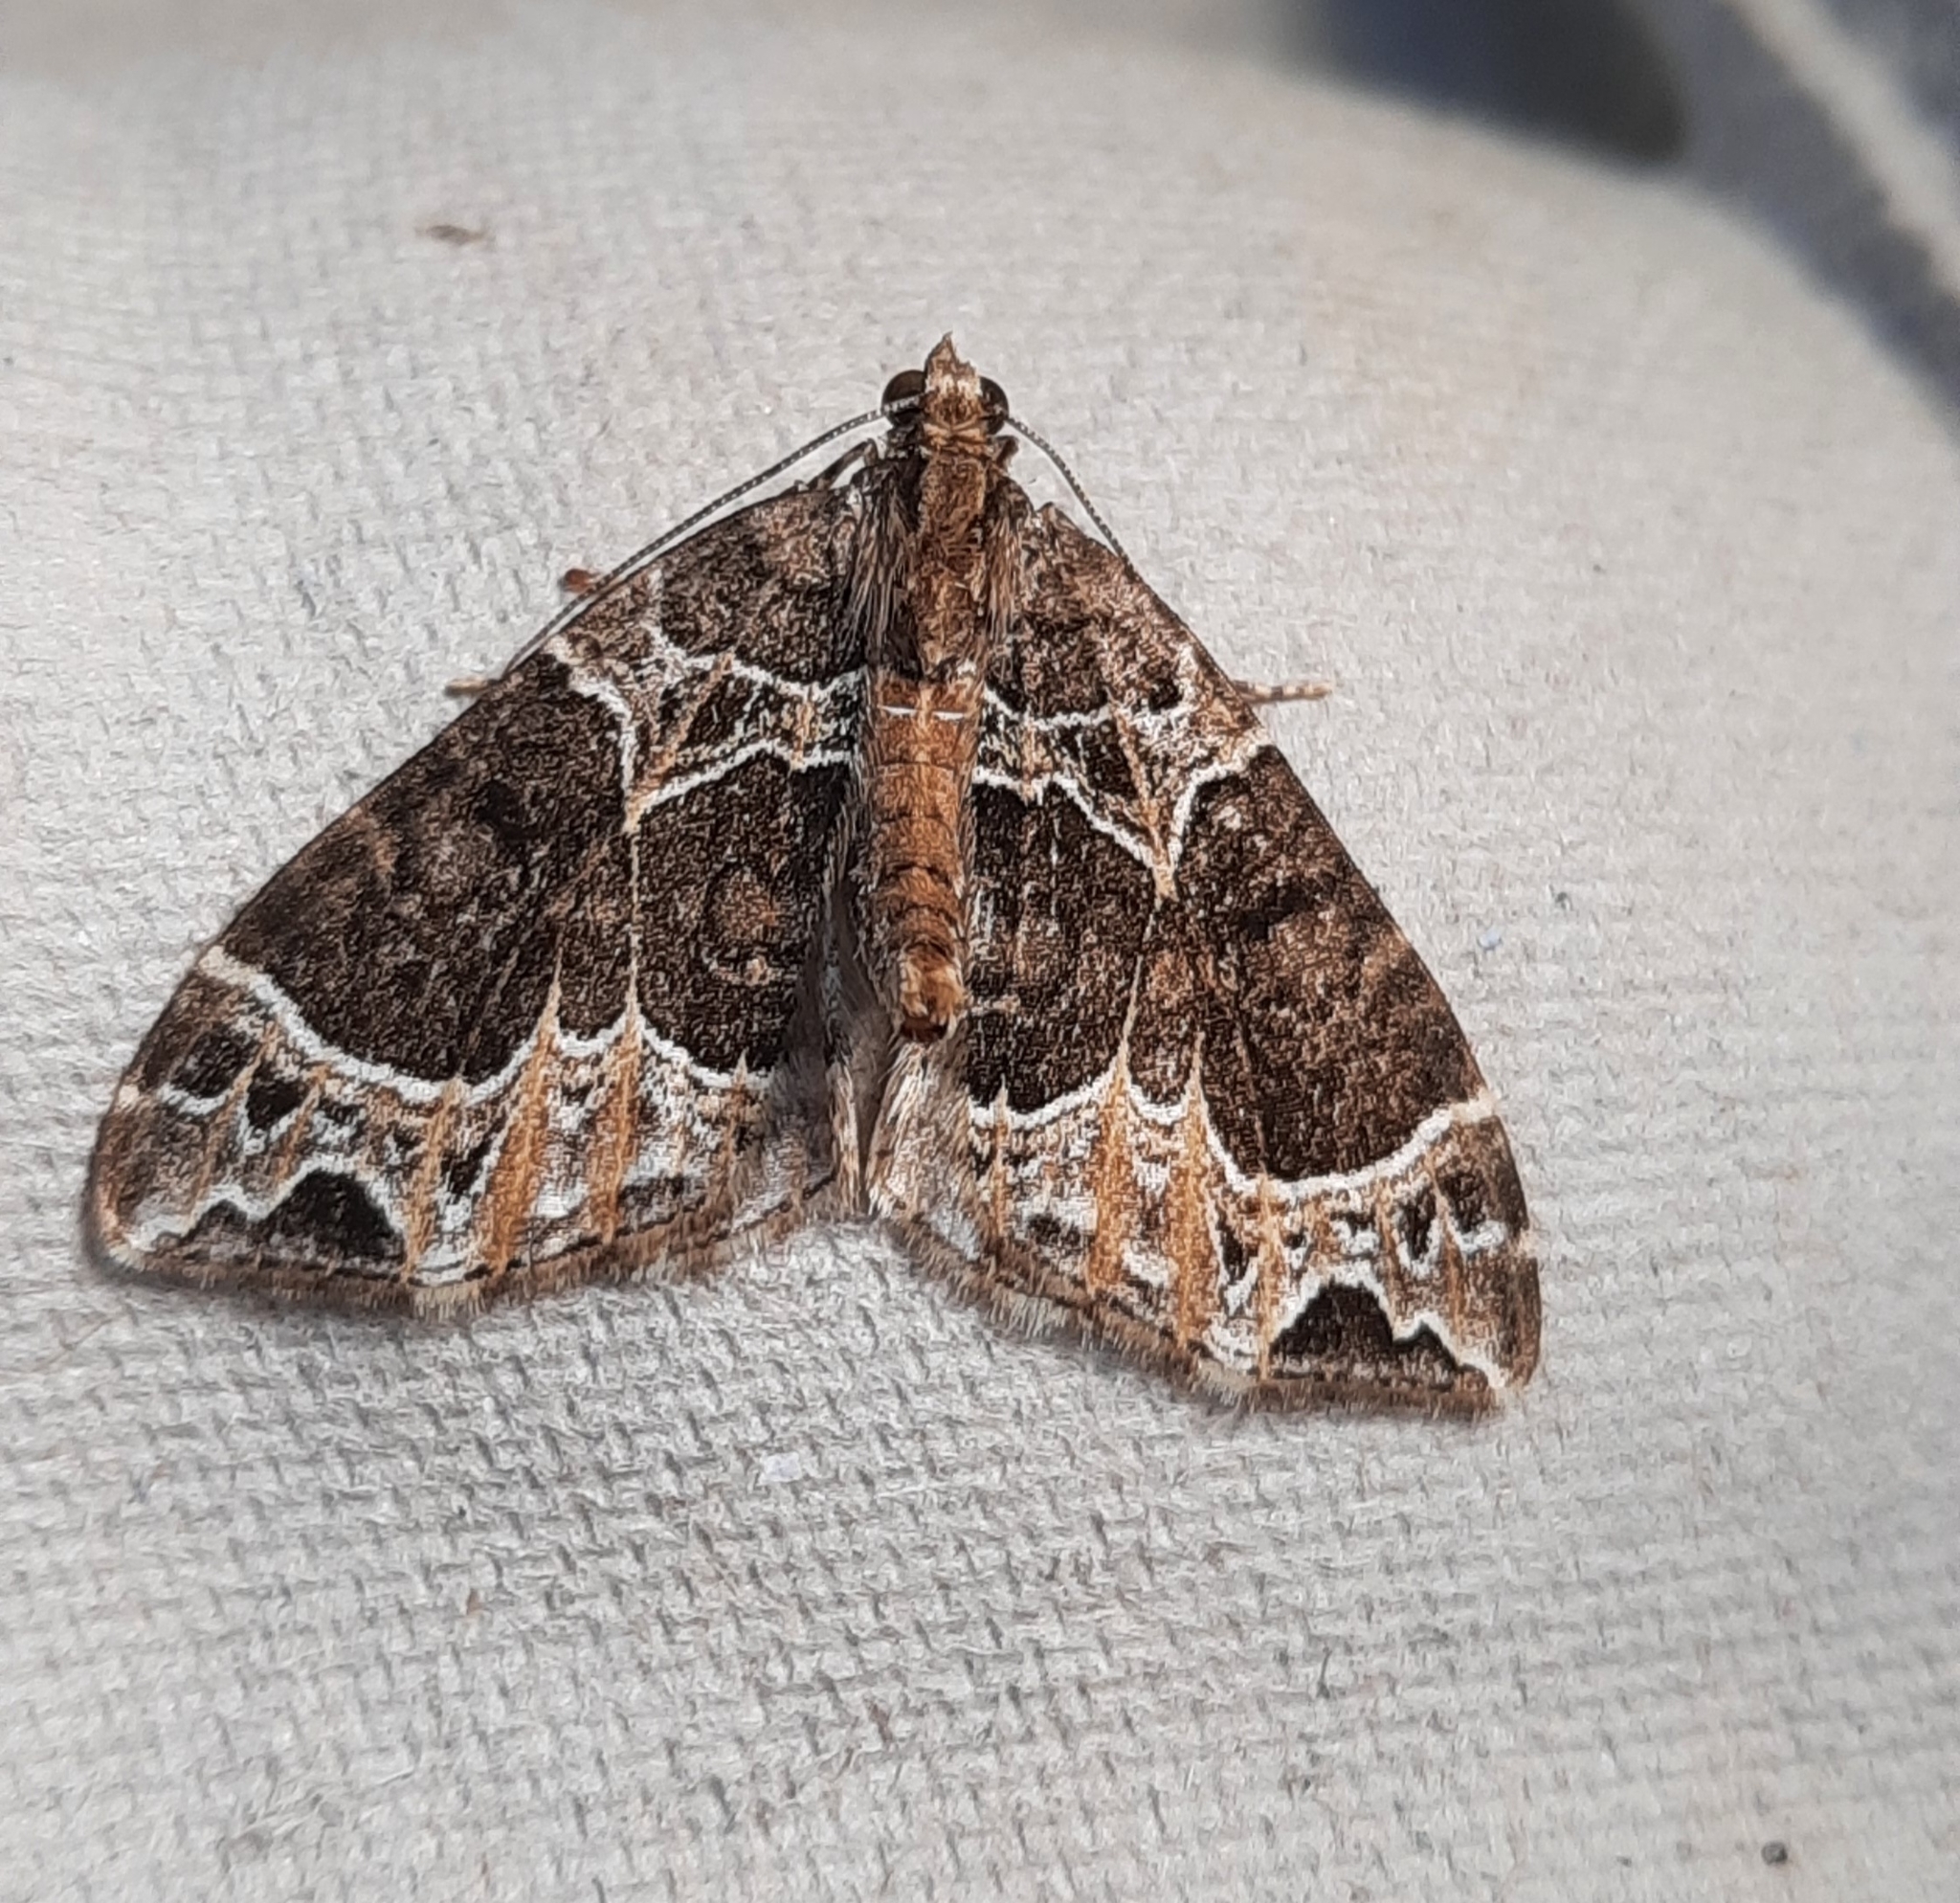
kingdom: Animalia
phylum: Arthropoda
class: Insecta
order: Lepidoptera
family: Geometridae
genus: Ecliptopera
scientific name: Ecliptopera silaceata
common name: Small phoenix
